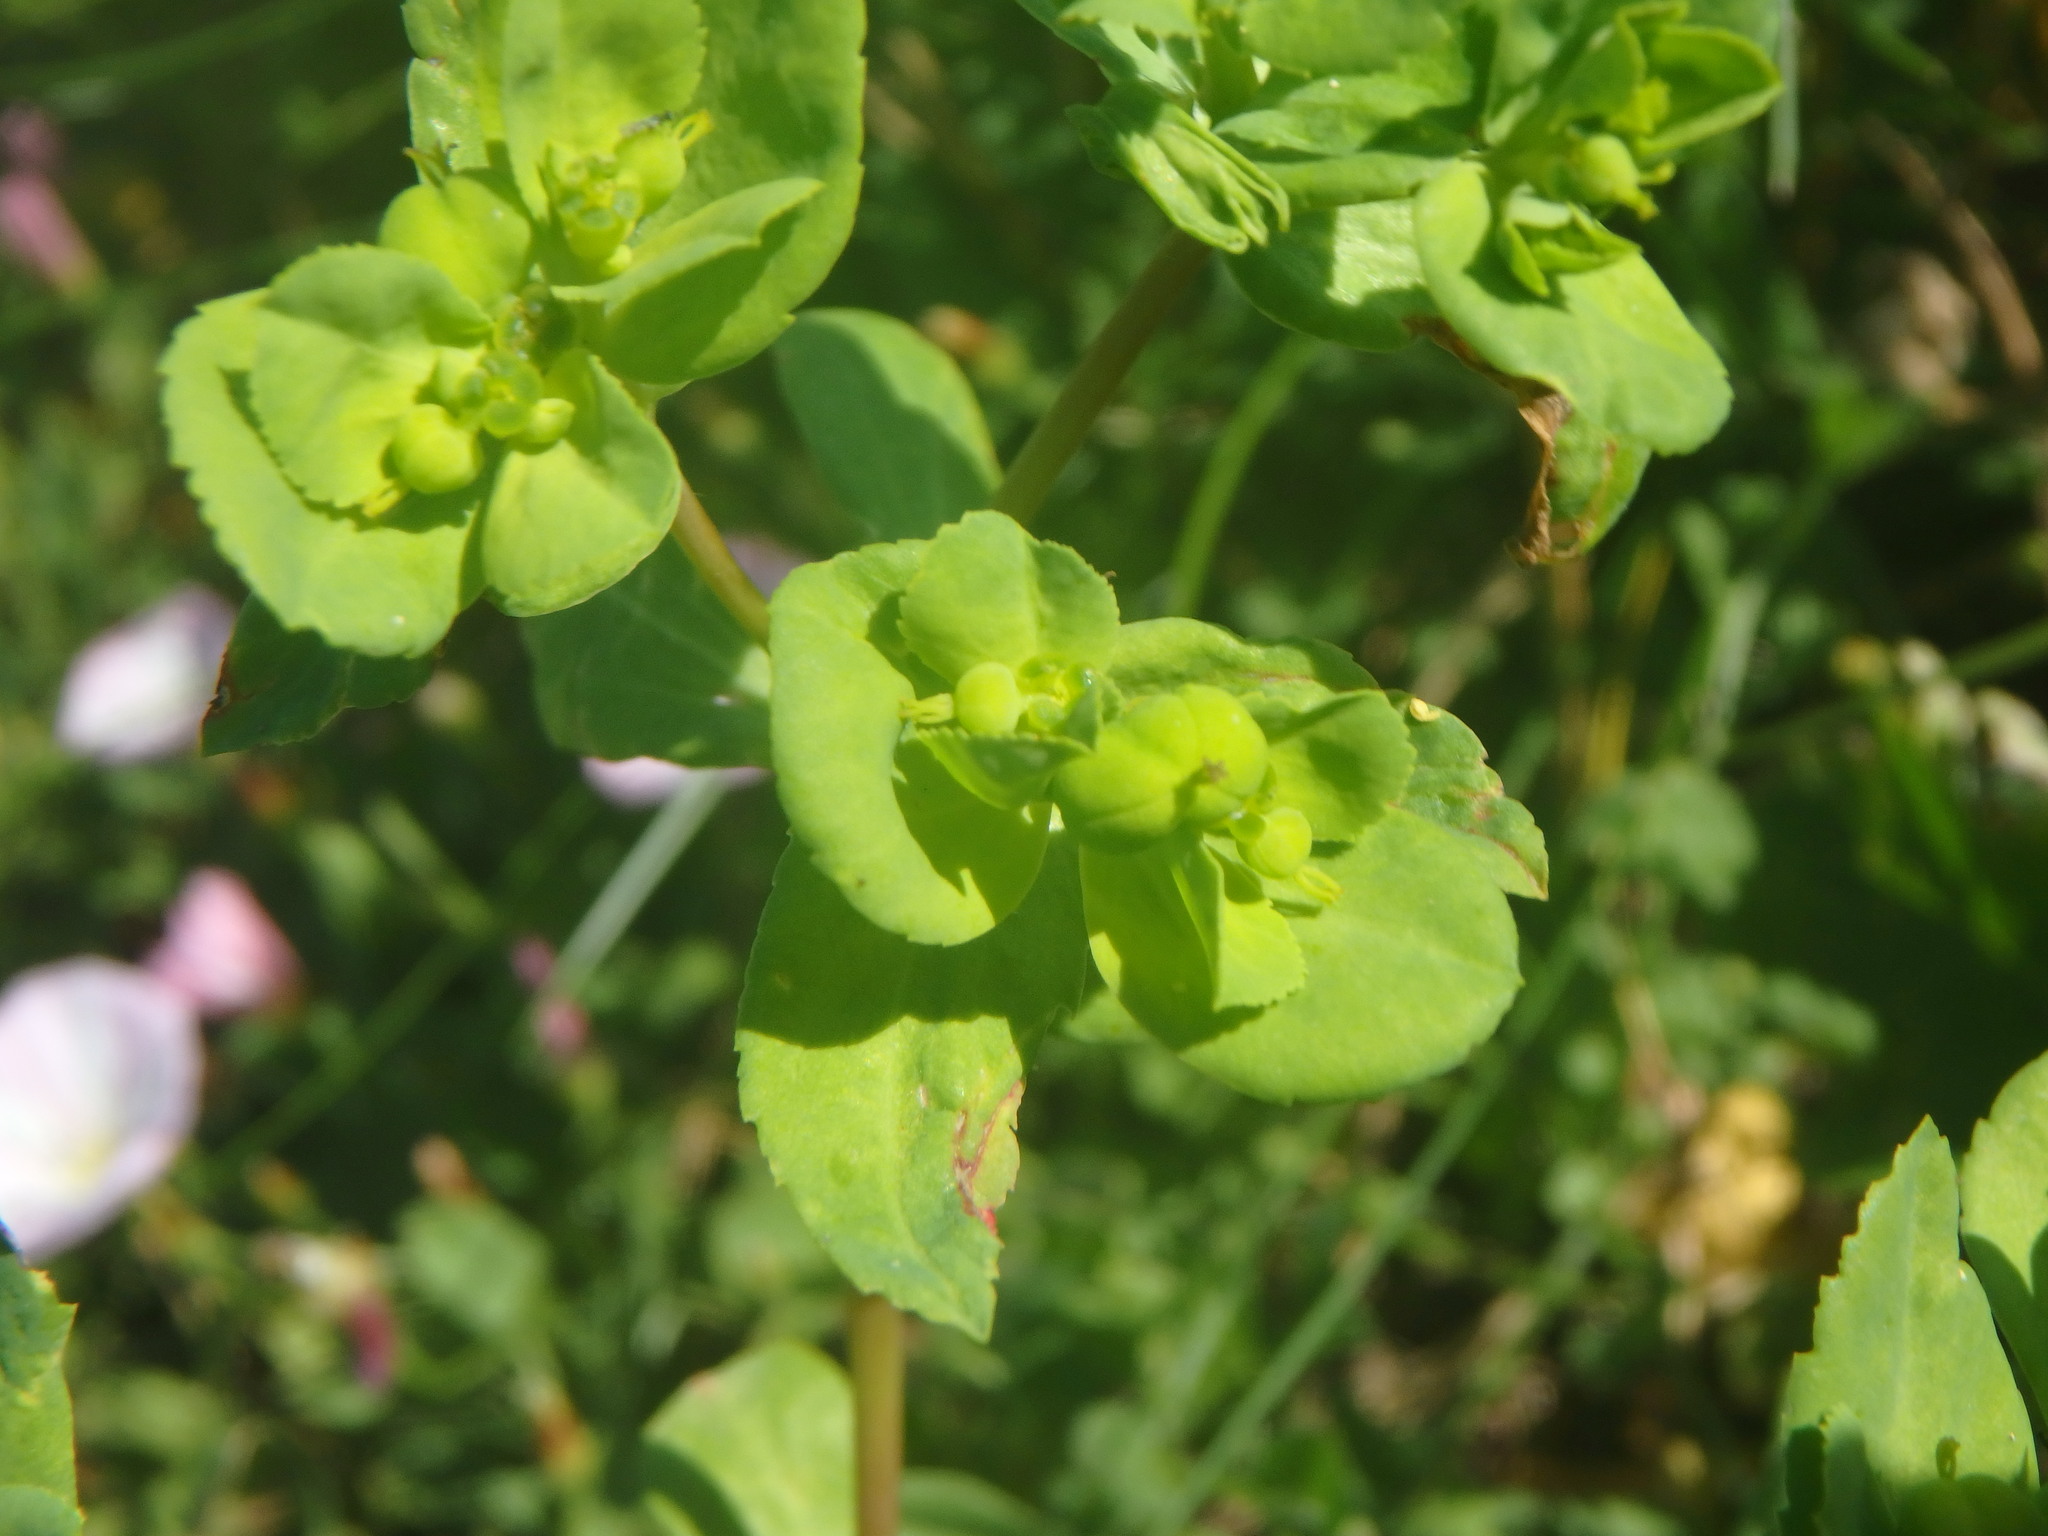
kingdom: Plantae
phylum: Tracheophyta
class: Magnoliopsida
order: Malpighiales
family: Euphorbiaceae
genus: Euphorbia
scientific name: Euphorbia helioscopia
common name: Sun spurge
